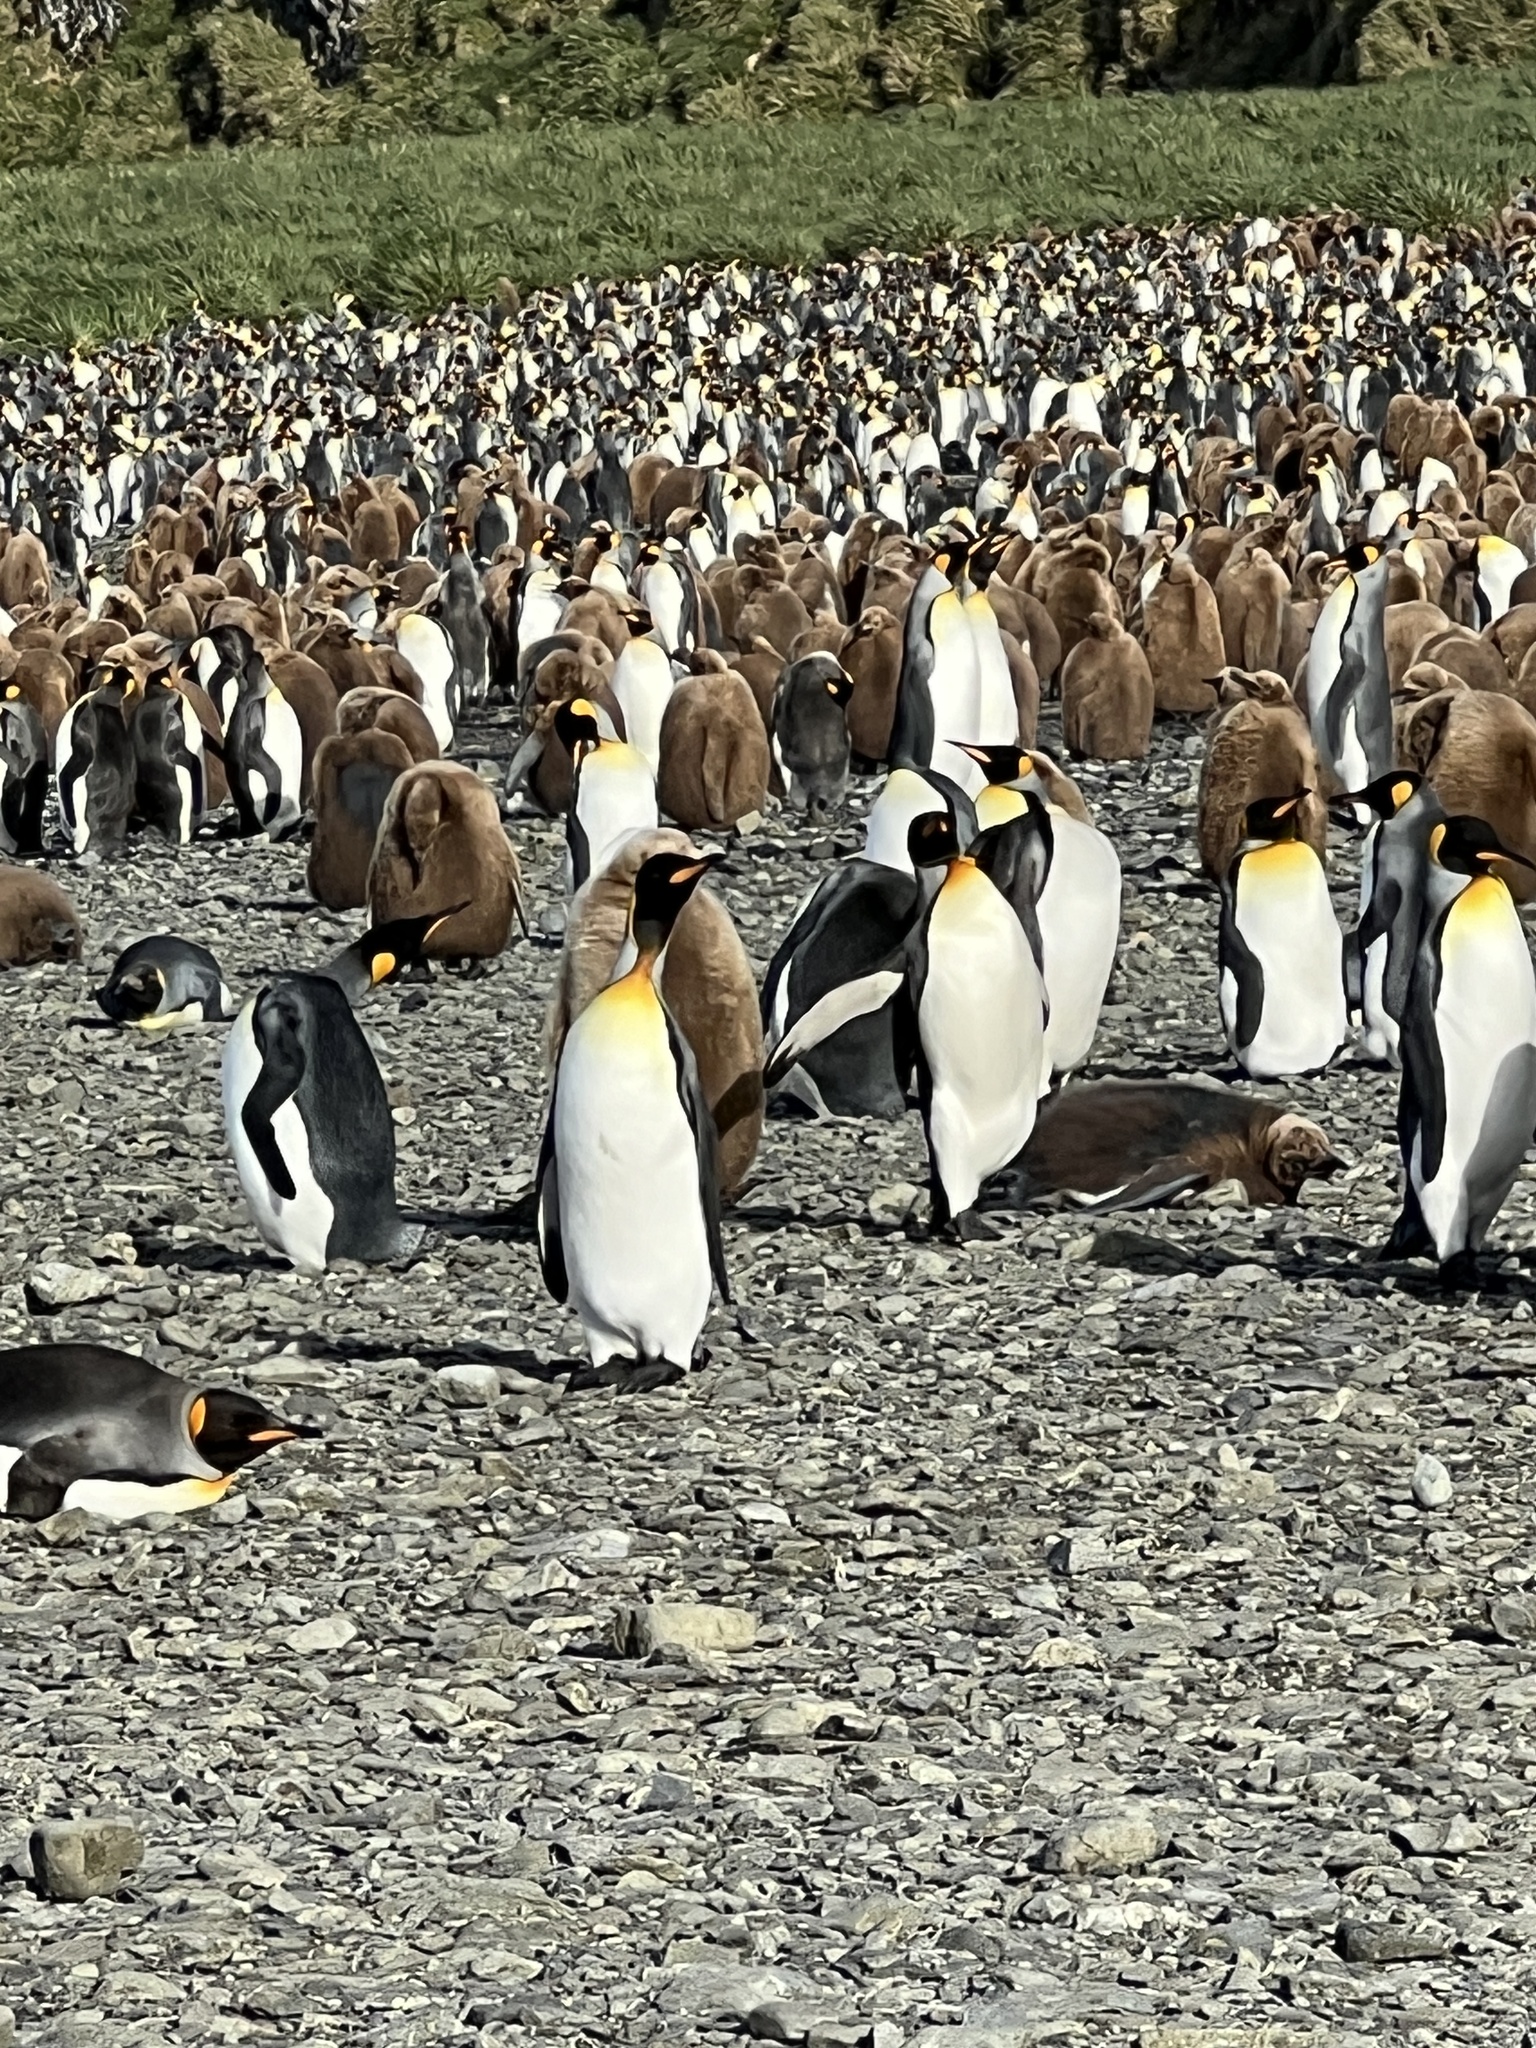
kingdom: Animalia
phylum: Chordata
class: Aves
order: Sphenisciformes
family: Spheniscidae
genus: Aptenodytes
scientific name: Aptenodytes patagonicus
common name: King penguin
